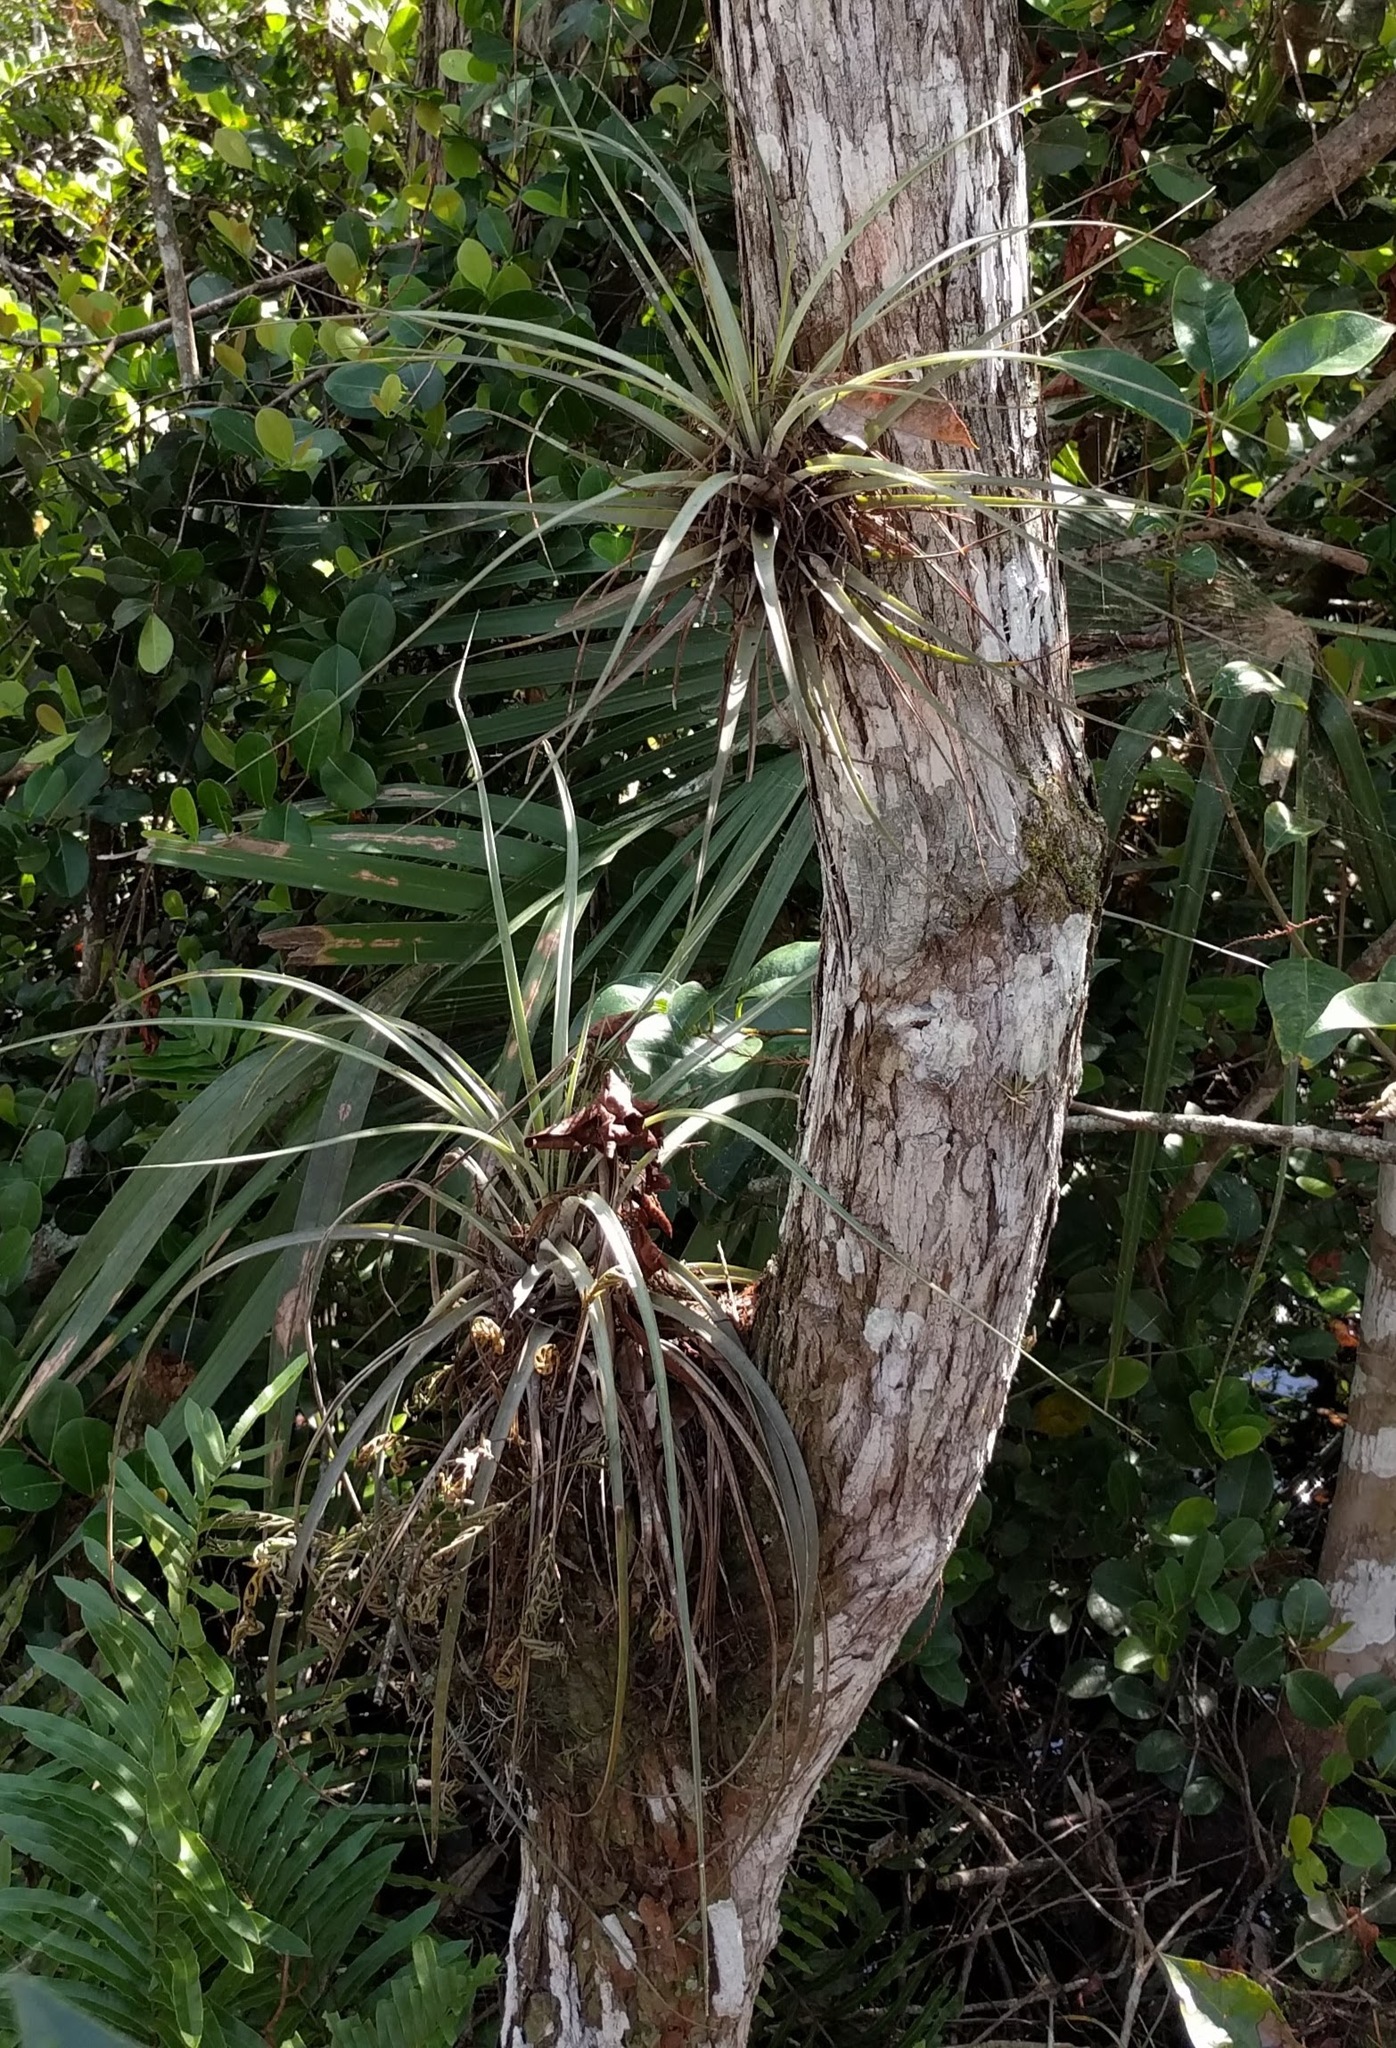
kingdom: Plantae
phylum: Tracheophyta
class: Liliopsida
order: Poales
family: Bromeliaceae
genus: Tillandsia
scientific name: Tillandsia fasciculata
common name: Giant airplant
